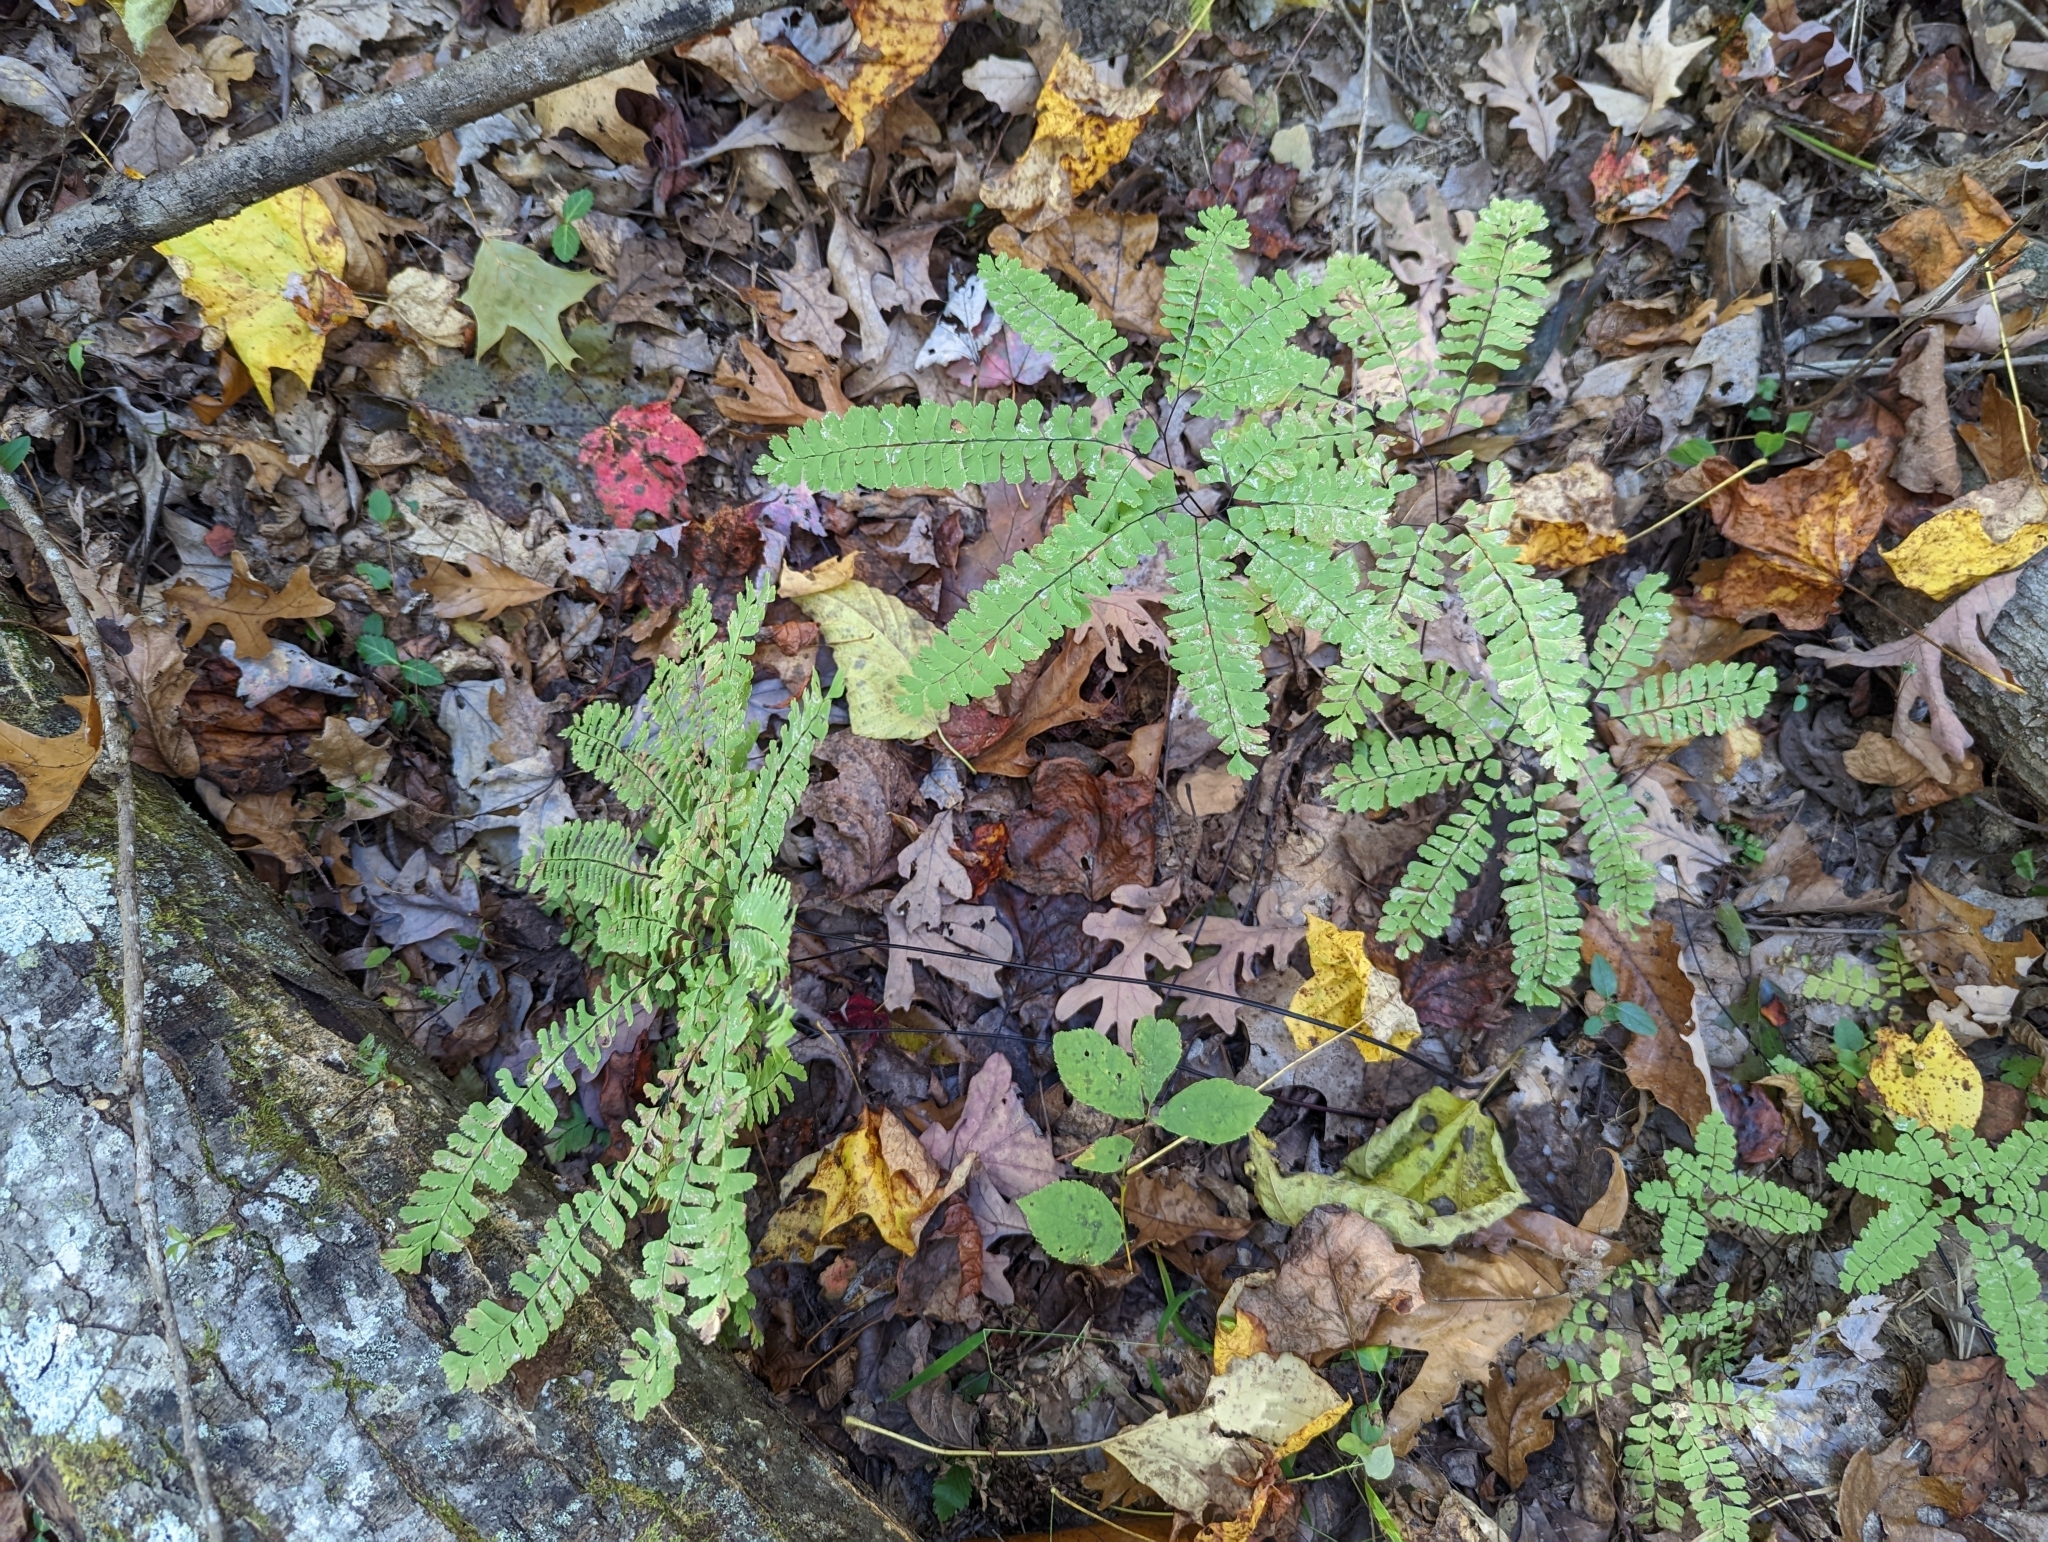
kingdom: Plantae
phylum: Tracheophyta
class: Polypodiopsida
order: Polypodiales
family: Pteridaceae
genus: Adiantum
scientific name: Adiantum pedatum
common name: Five-finger fern
